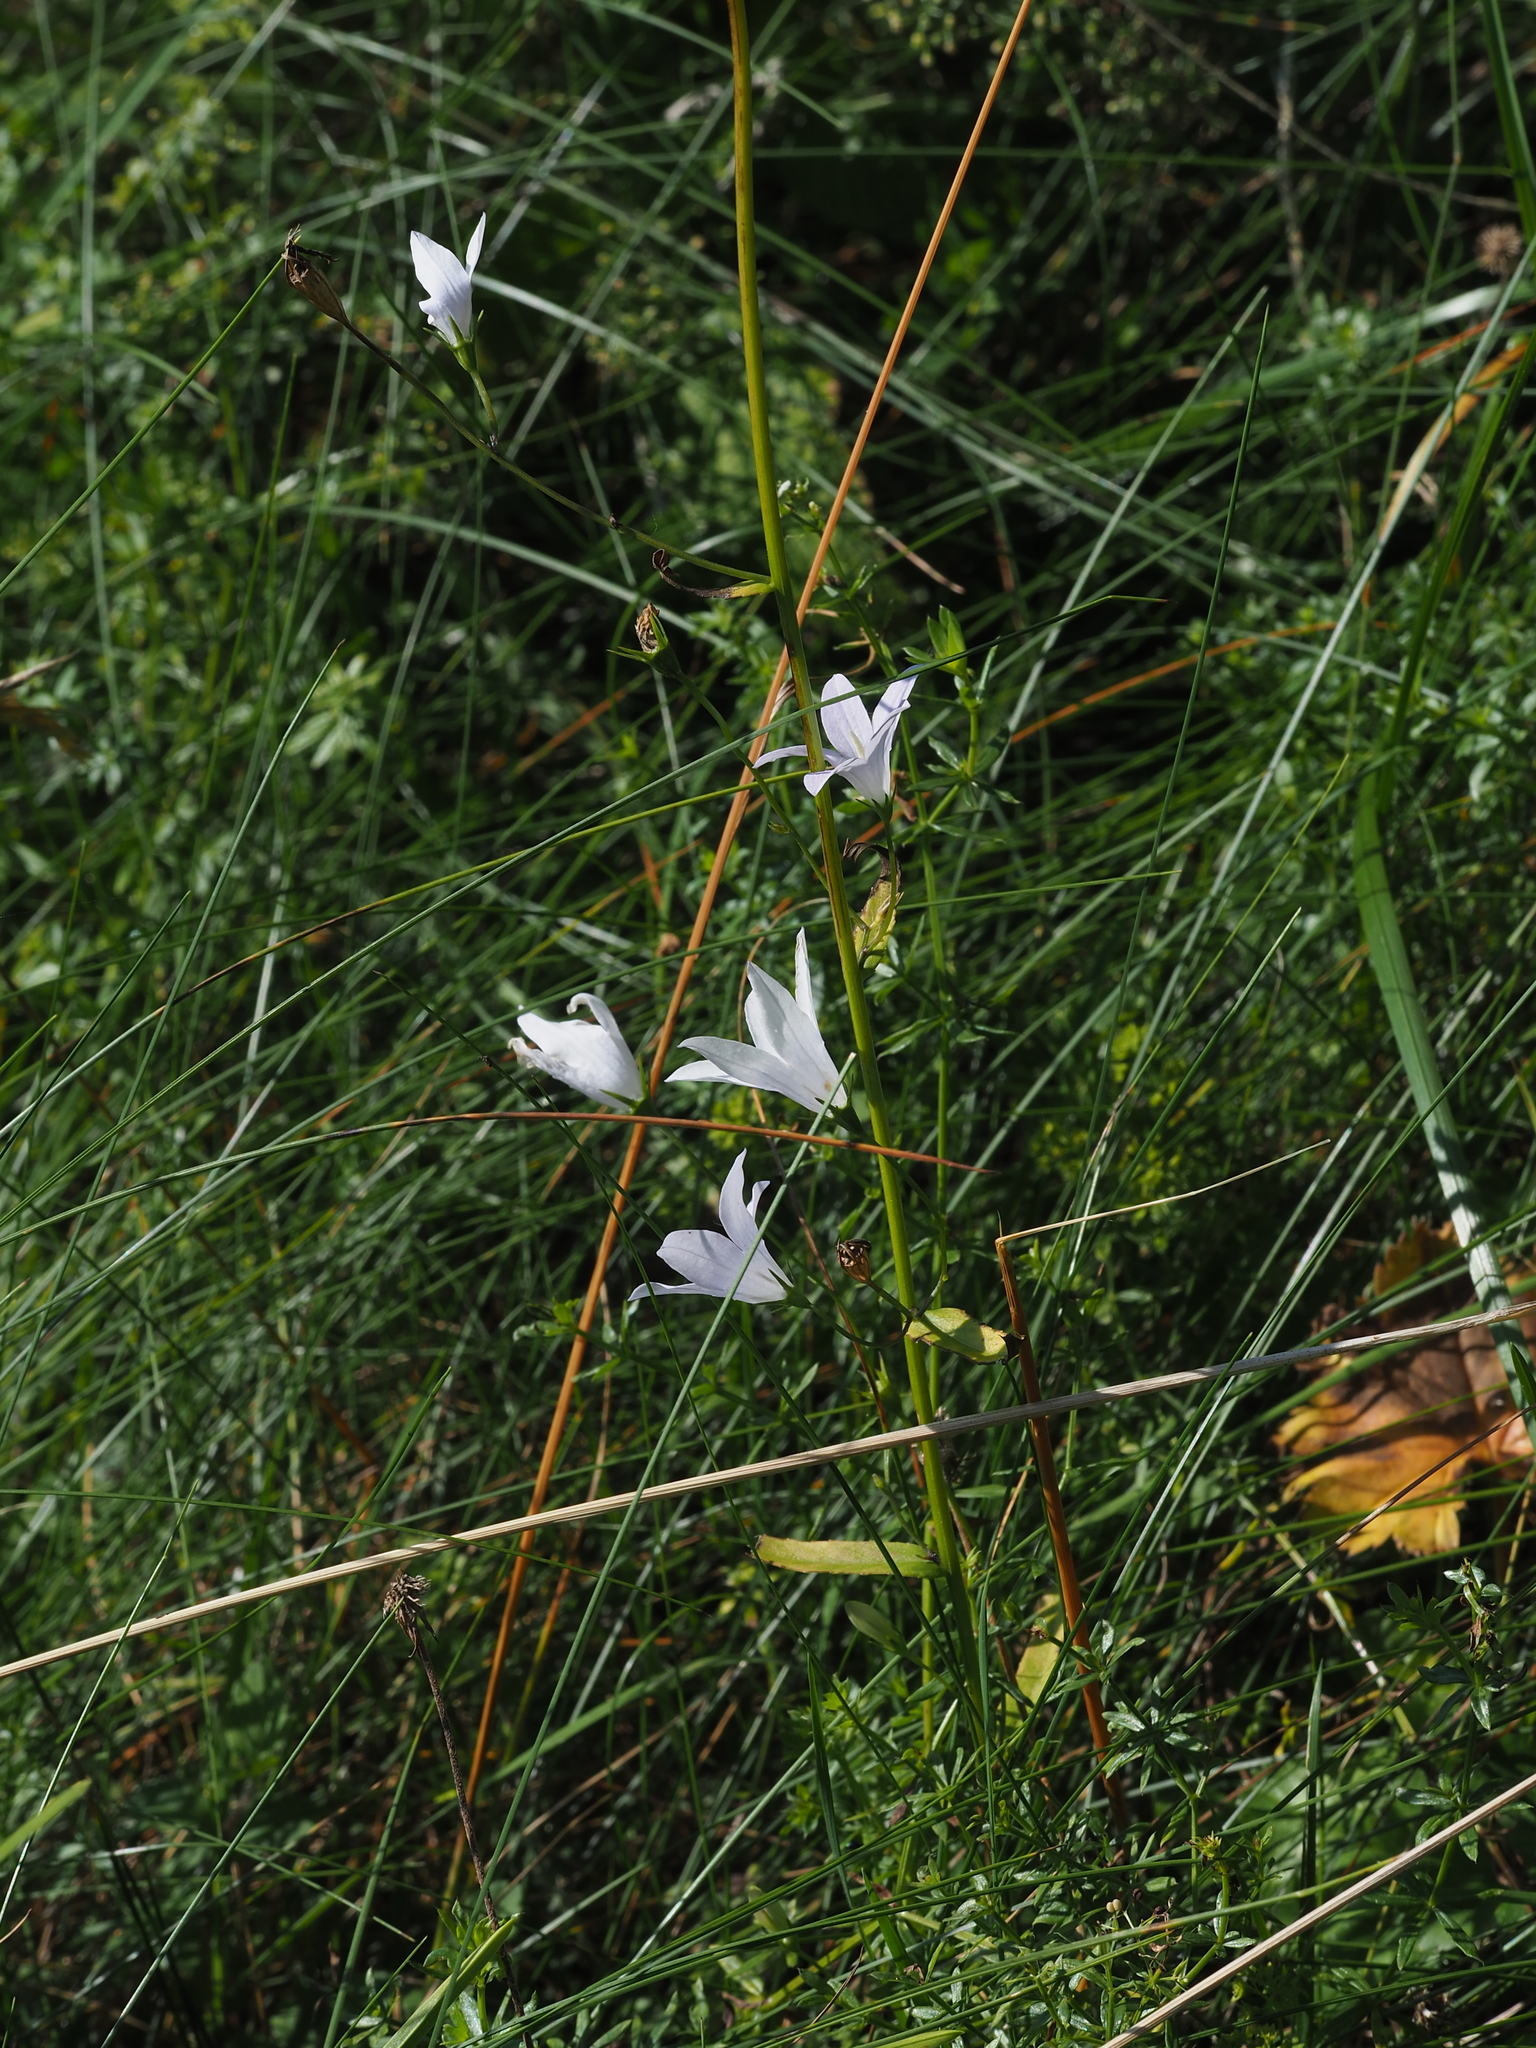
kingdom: Plantae
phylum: Tracheophyta
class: Magnoliopsida
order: Asterales
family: Campanulaceae
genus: Campanula
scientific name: Campanula patula
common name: Spreading bellflower
